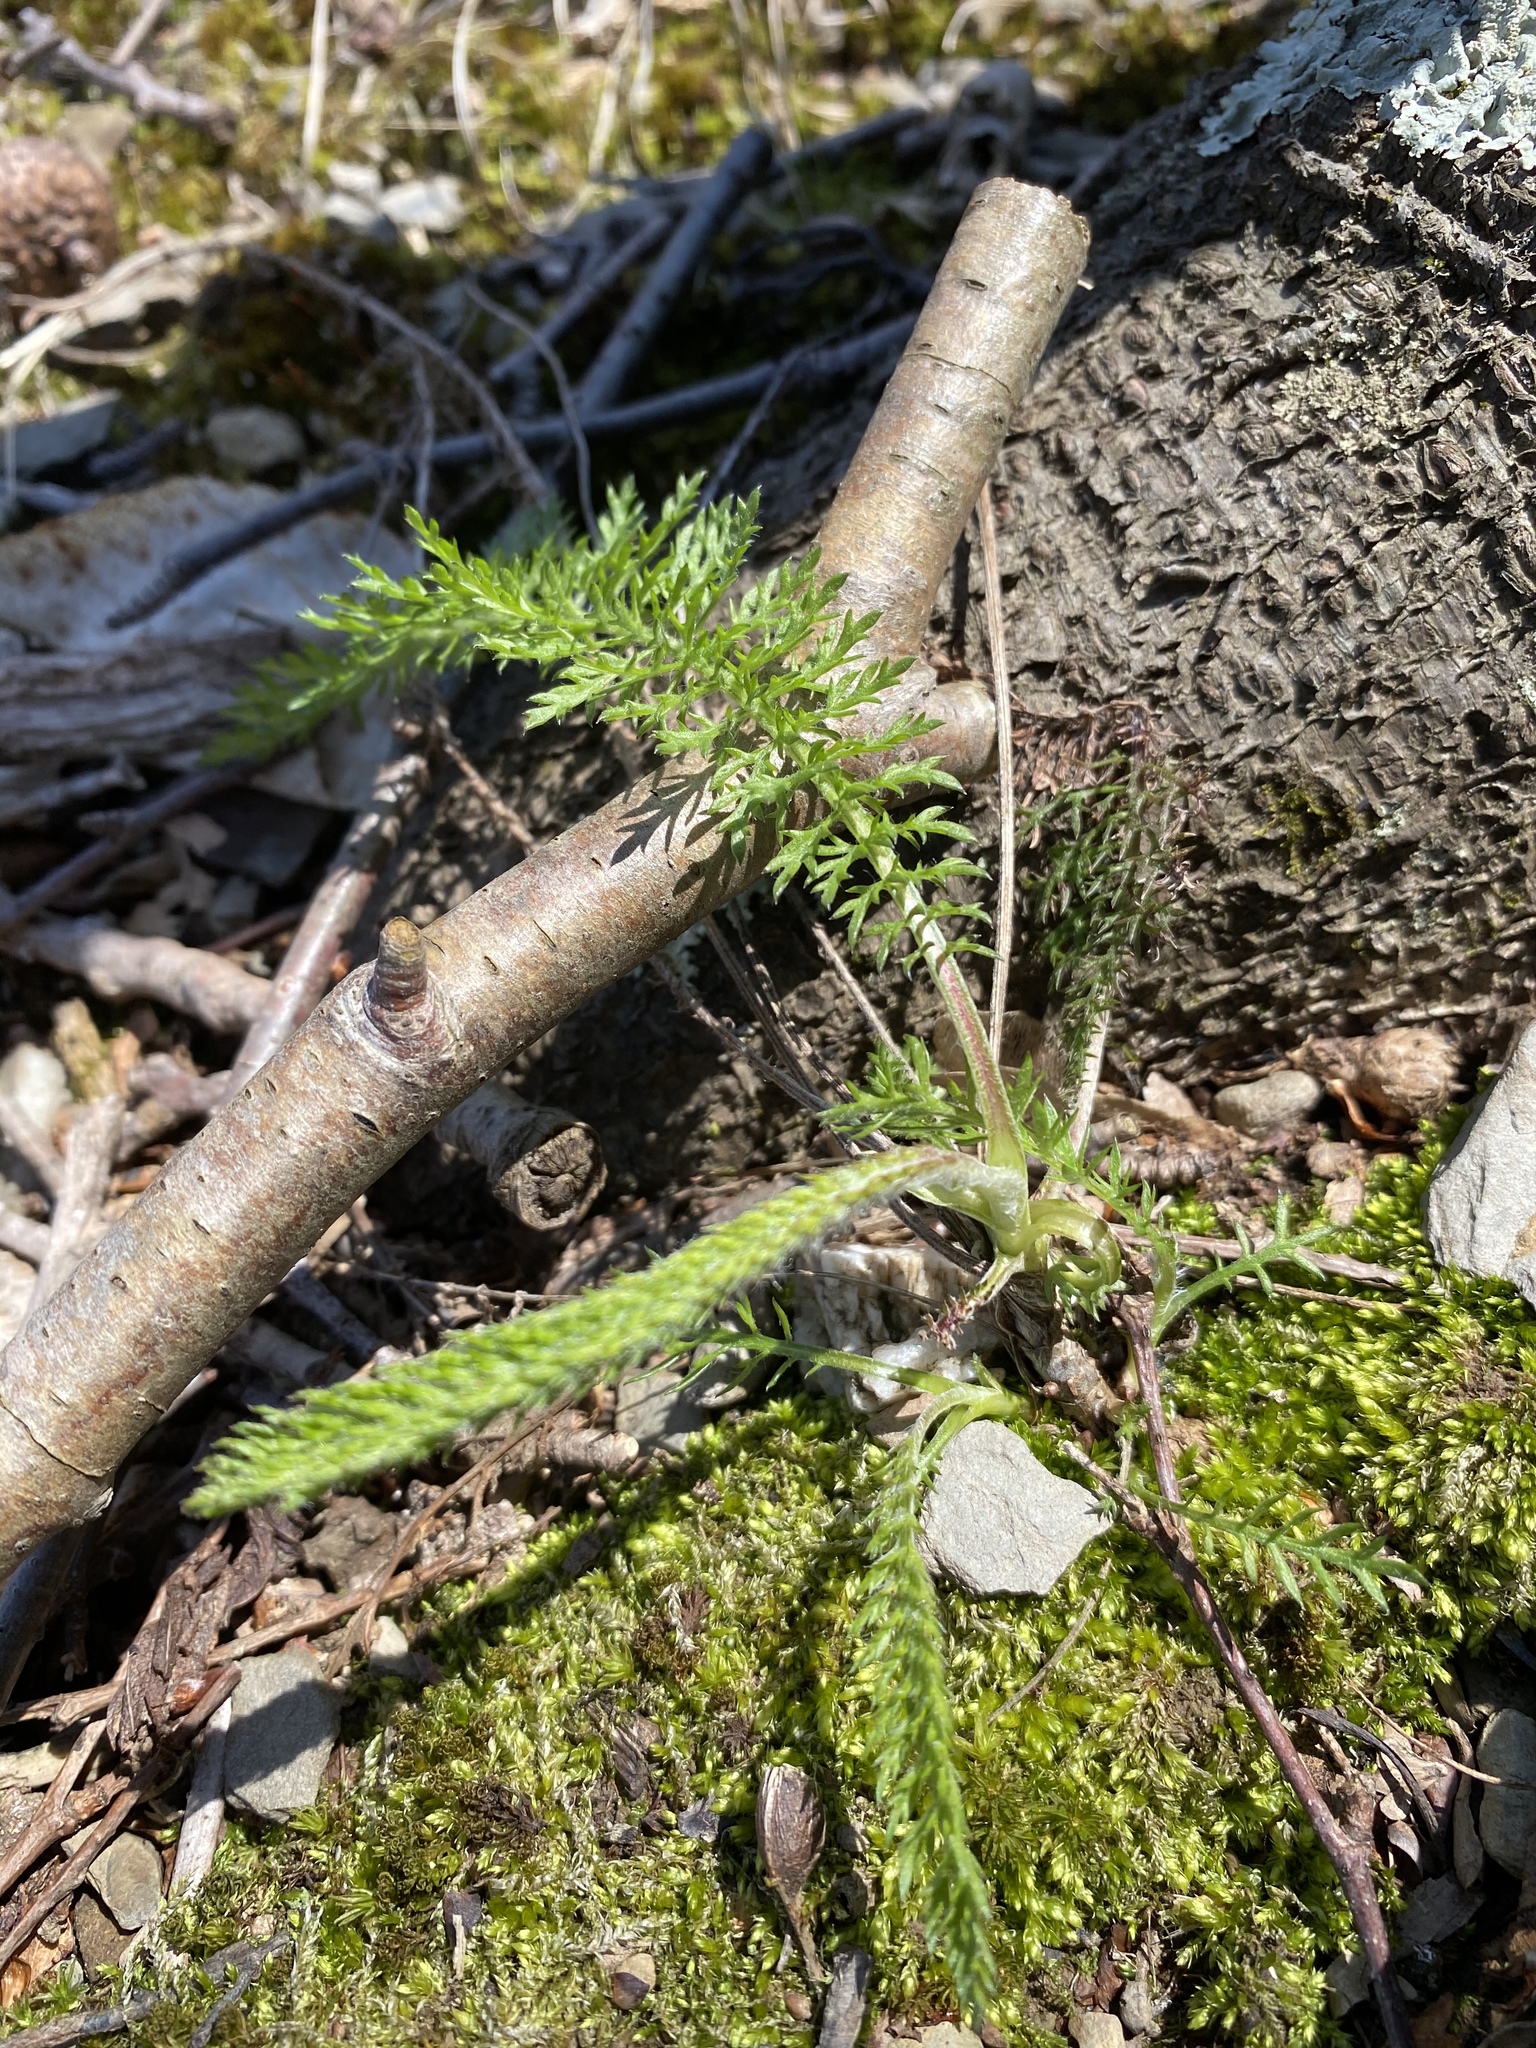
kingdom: Plantae
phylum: Tracheophyta
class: Magnoliopsida
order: Asterales
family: Asteraceae
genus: Achillea
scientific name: Achillea millefolium
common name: Yarrow
